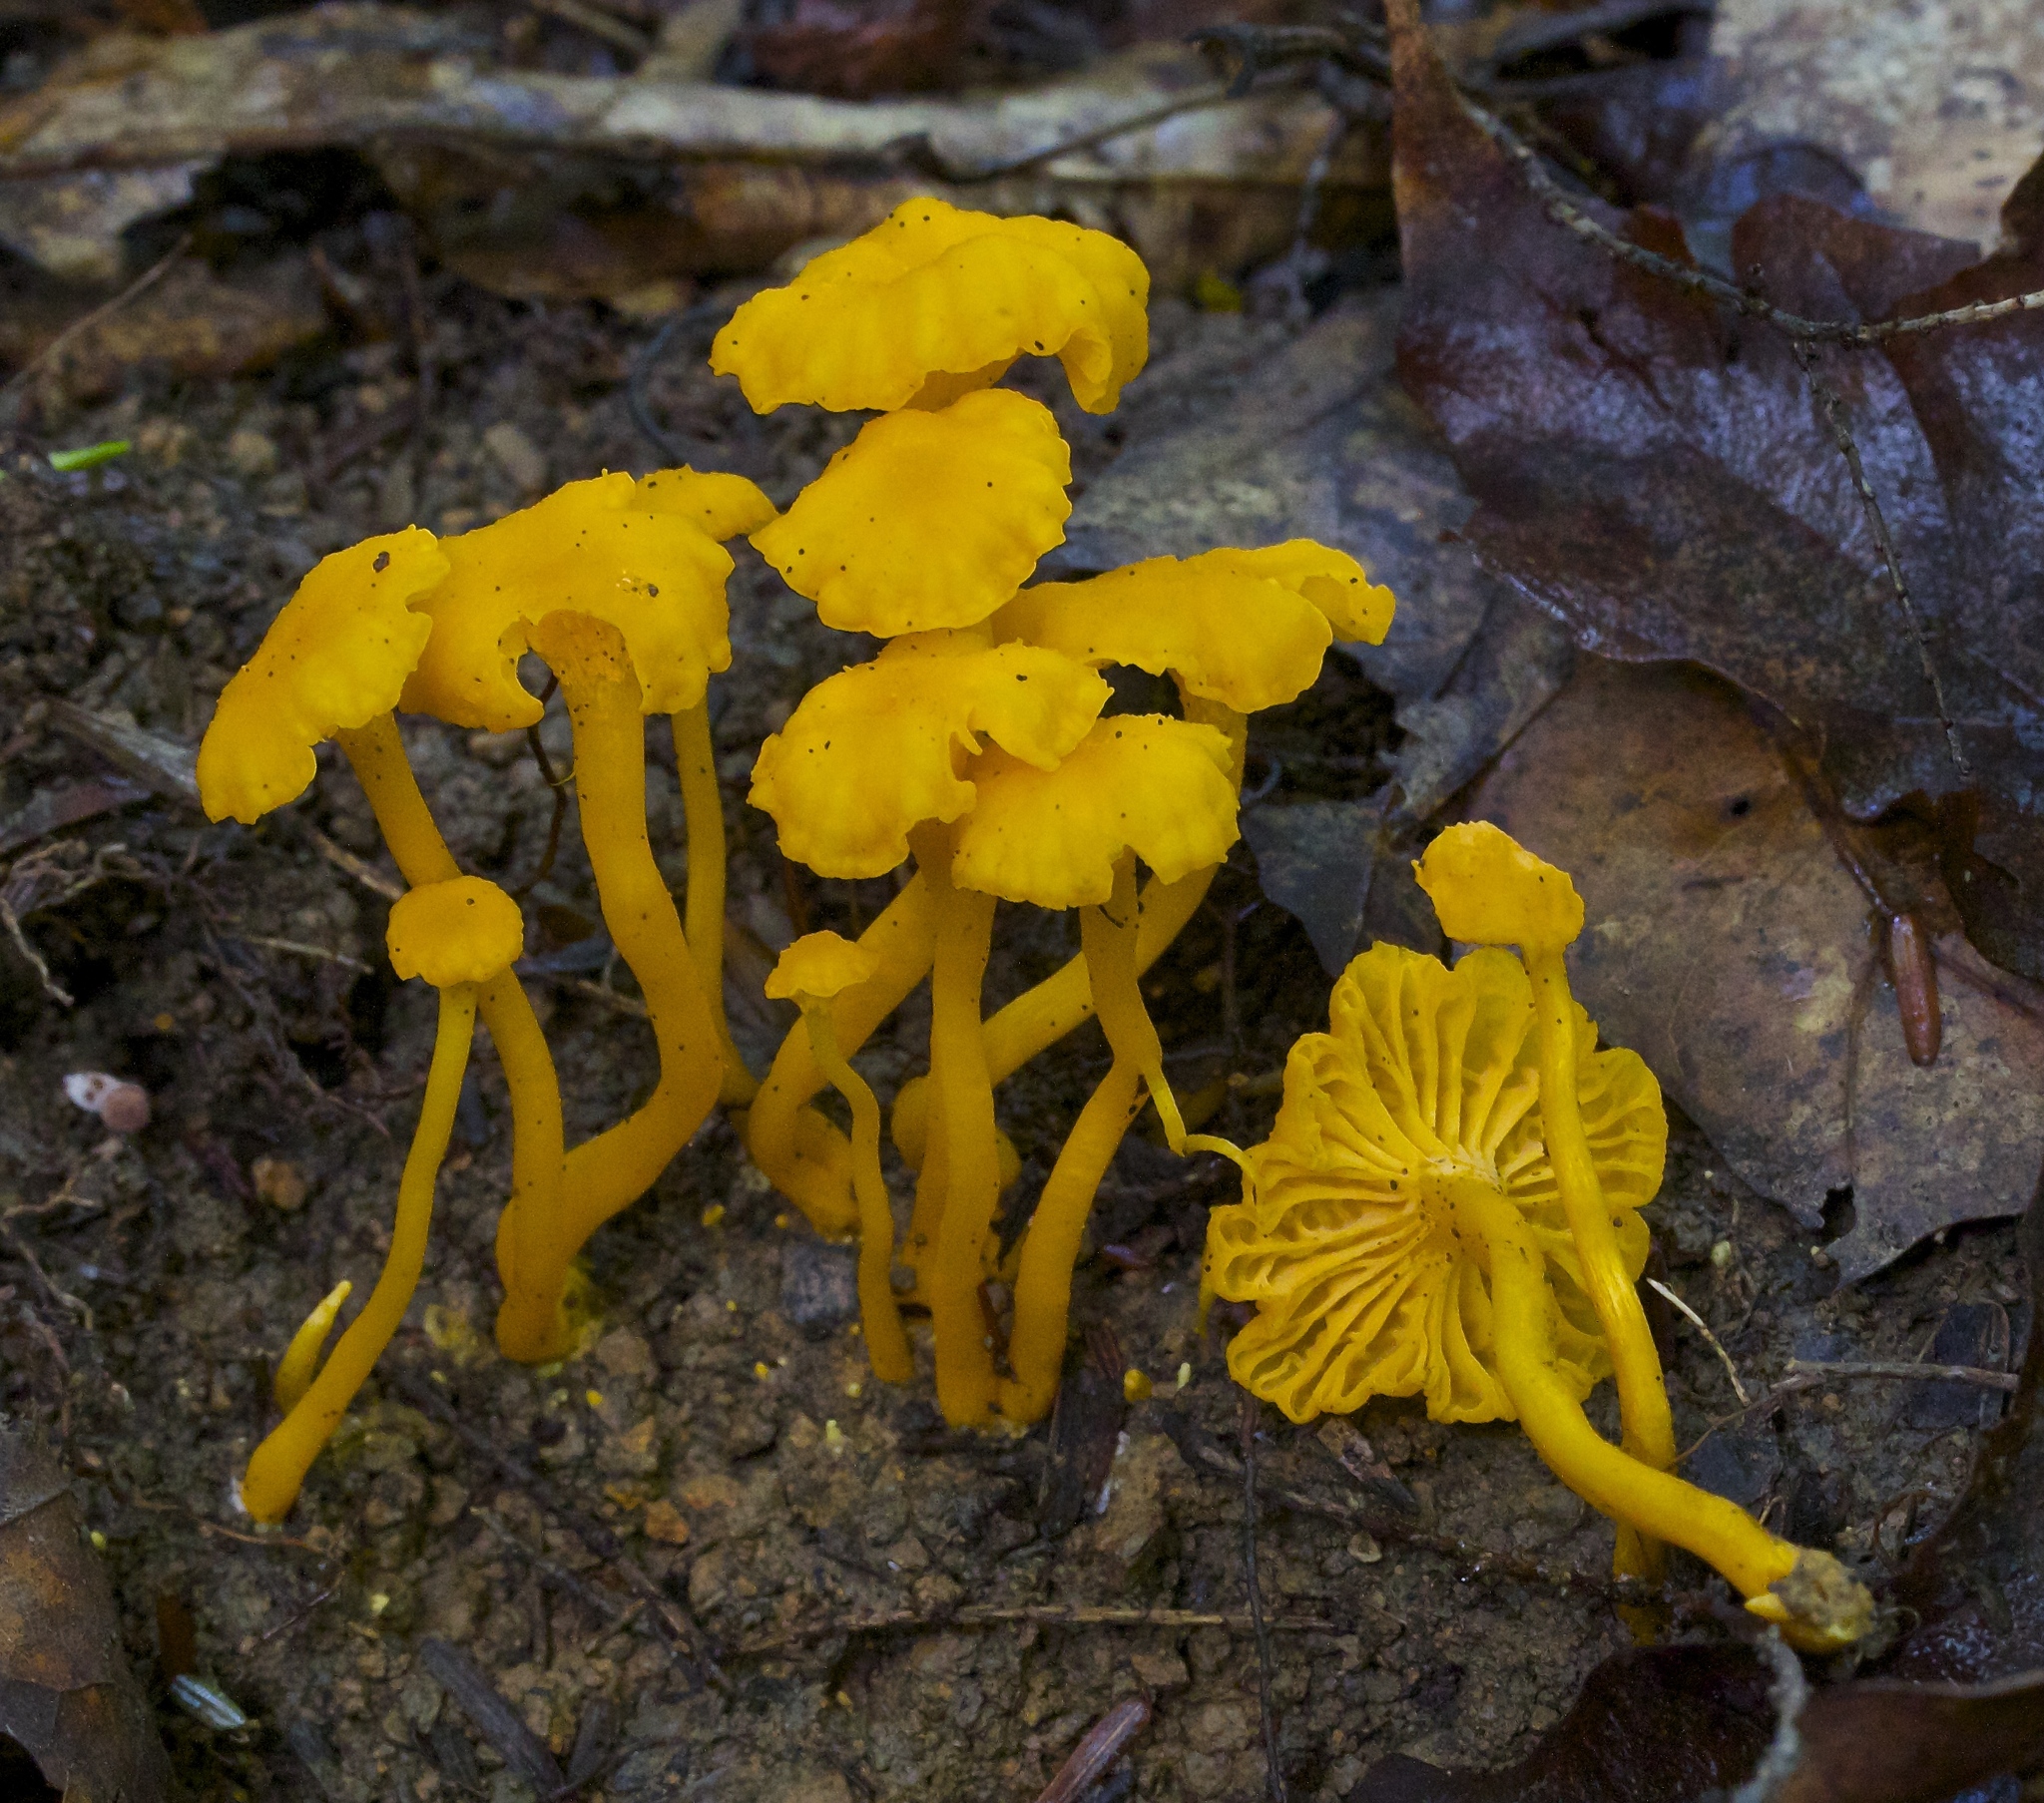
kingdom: Fungi
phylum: Basidiomycota
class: Agaricomycetes
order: Cantharellales
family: Hydnaceae
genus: Cantharellus
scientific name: Cantharellus minor
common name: Small chanterelle
